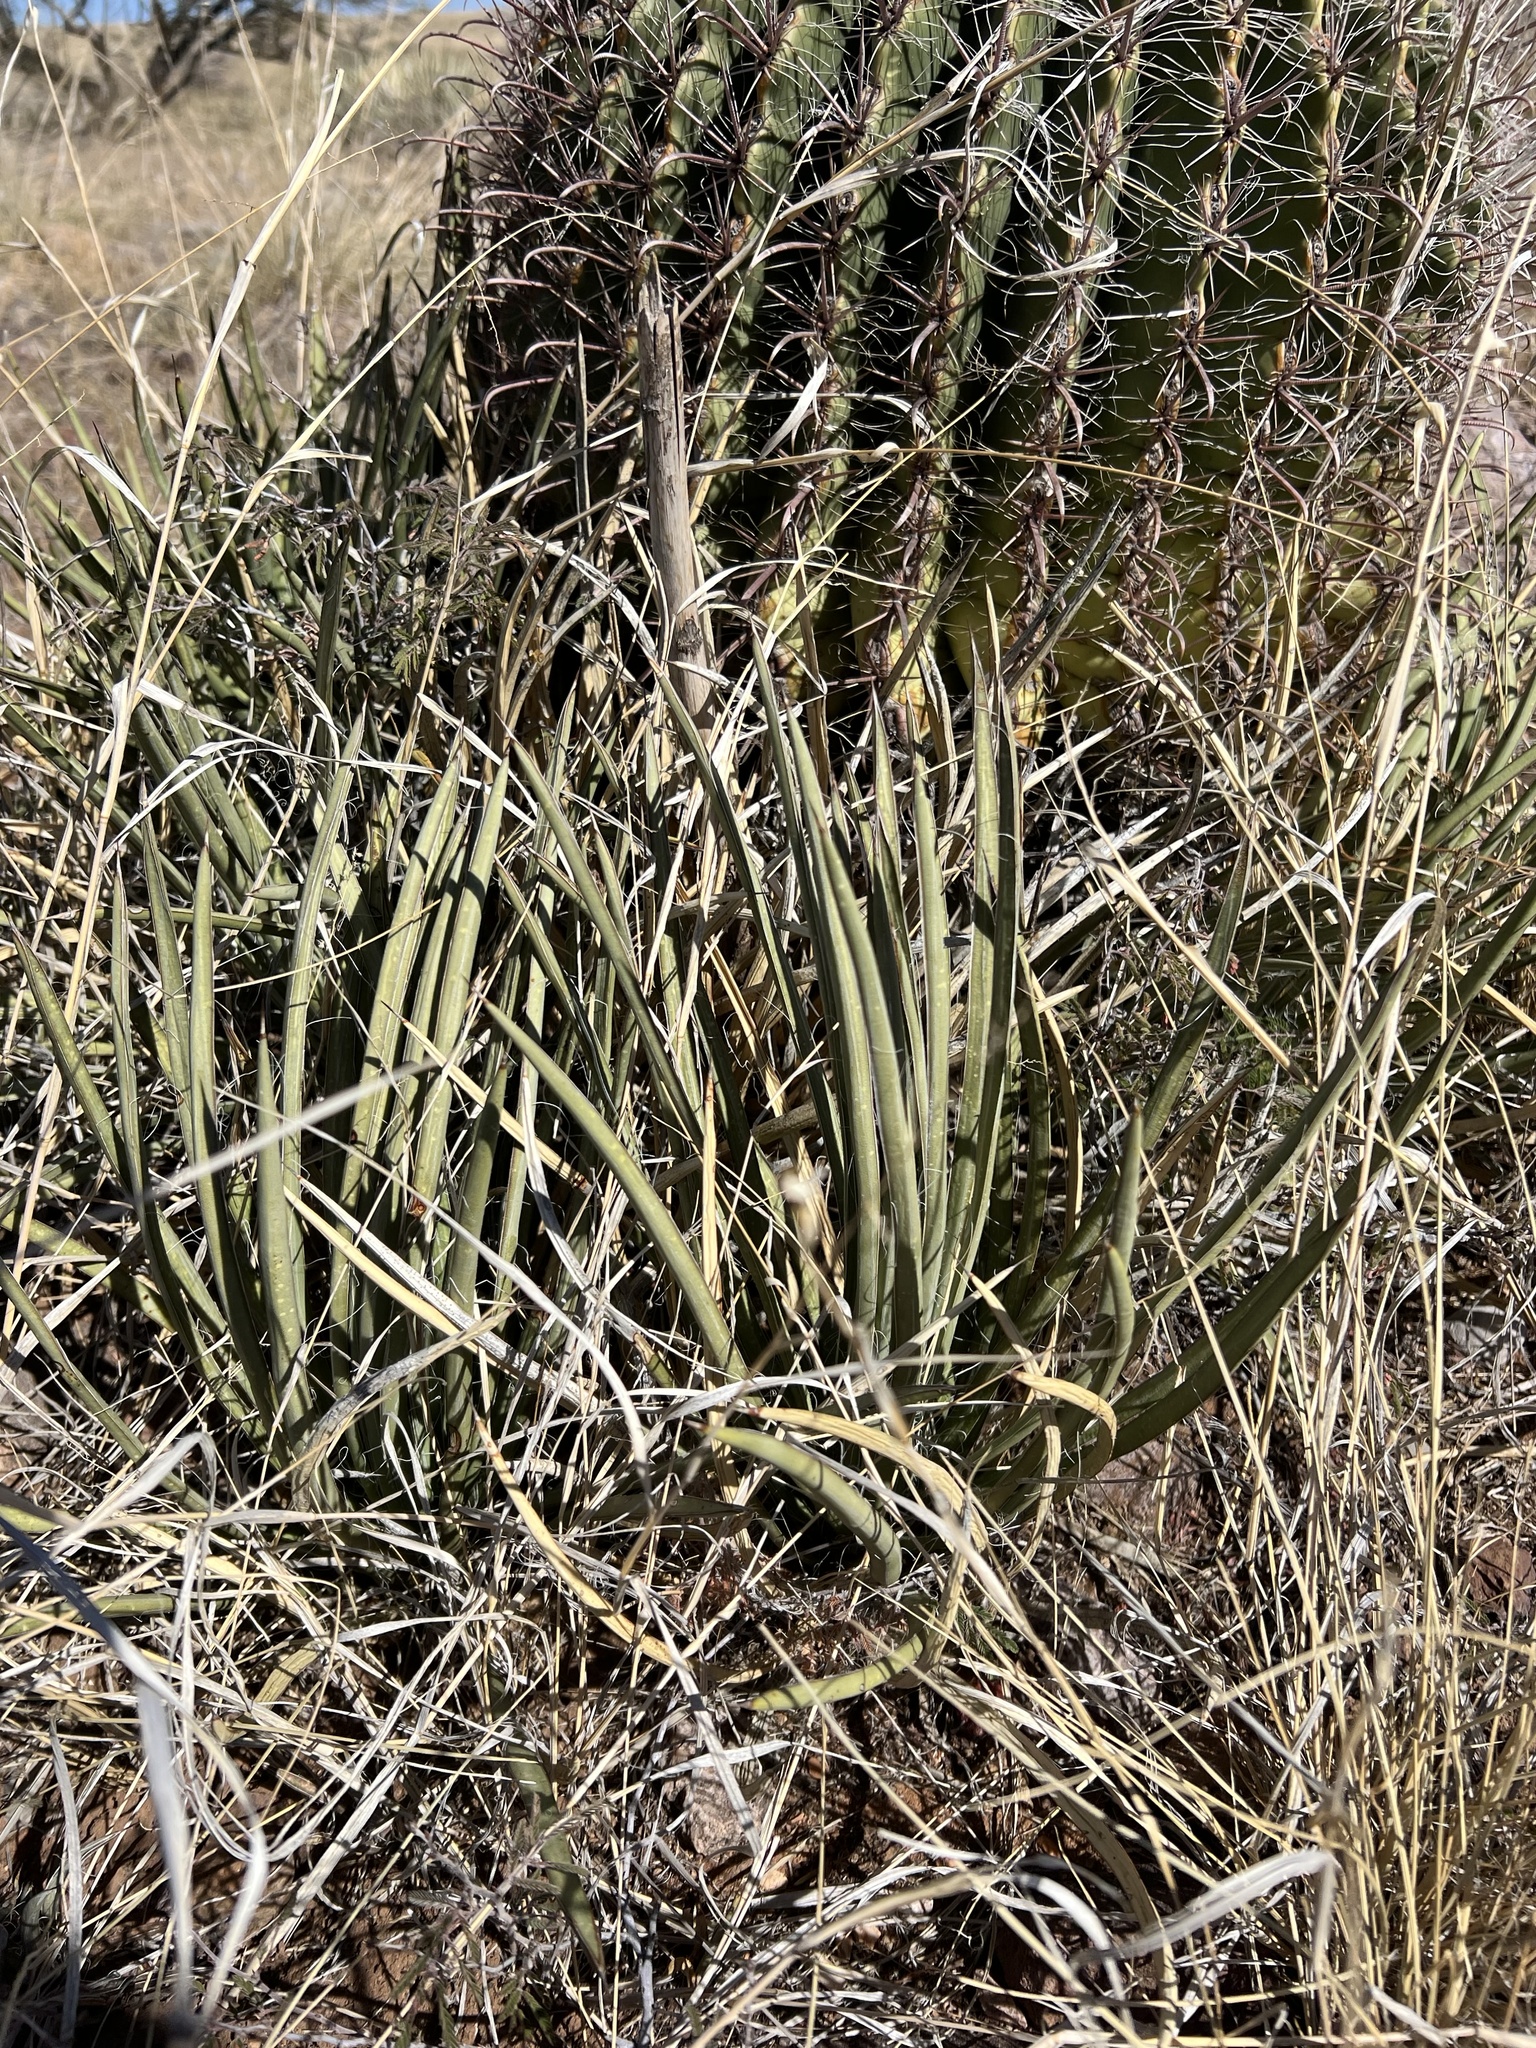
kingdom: Plantae
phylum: Tracheophyta
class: Liliopsida
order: Asparagales
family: Asparagaceae
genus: Agave
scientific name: Agave schottii
